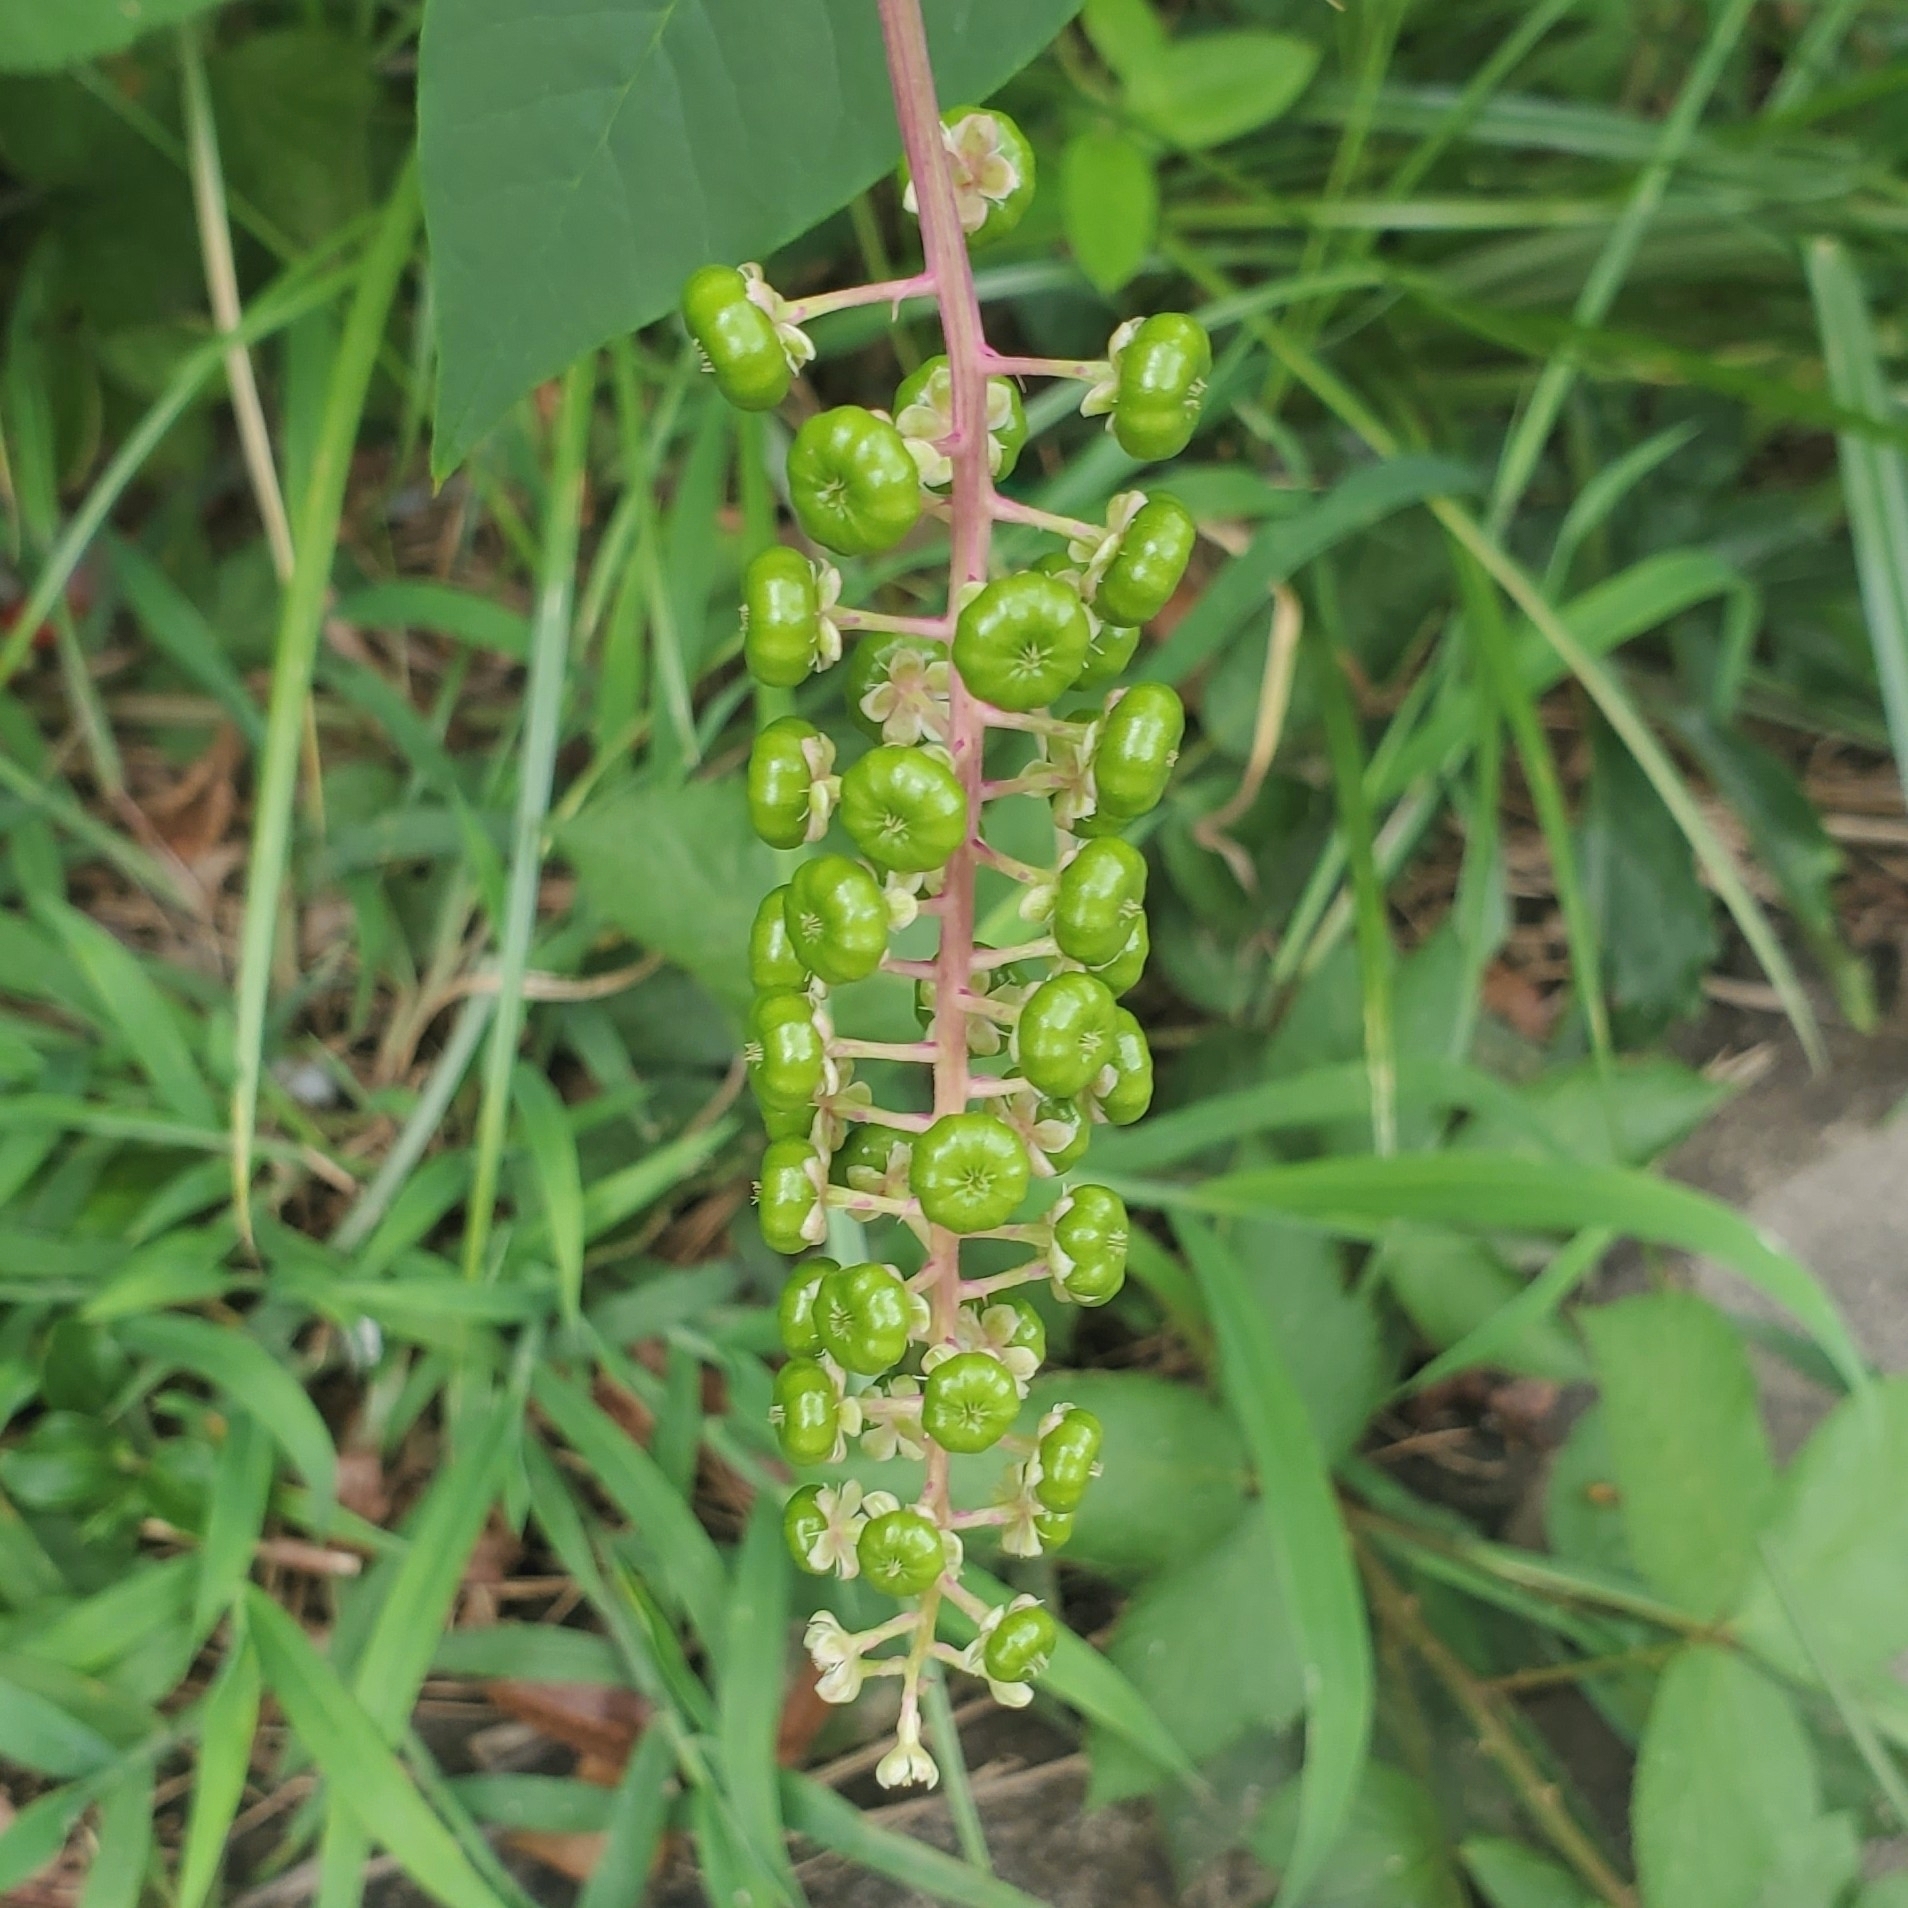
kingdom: Plantae
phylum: Tracheophyta
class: Magnoliopsida
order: Caryophyllales
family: Phytolaccaceae
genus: Phytolacca
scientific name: Phytolacca americana
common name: American pokeweed
